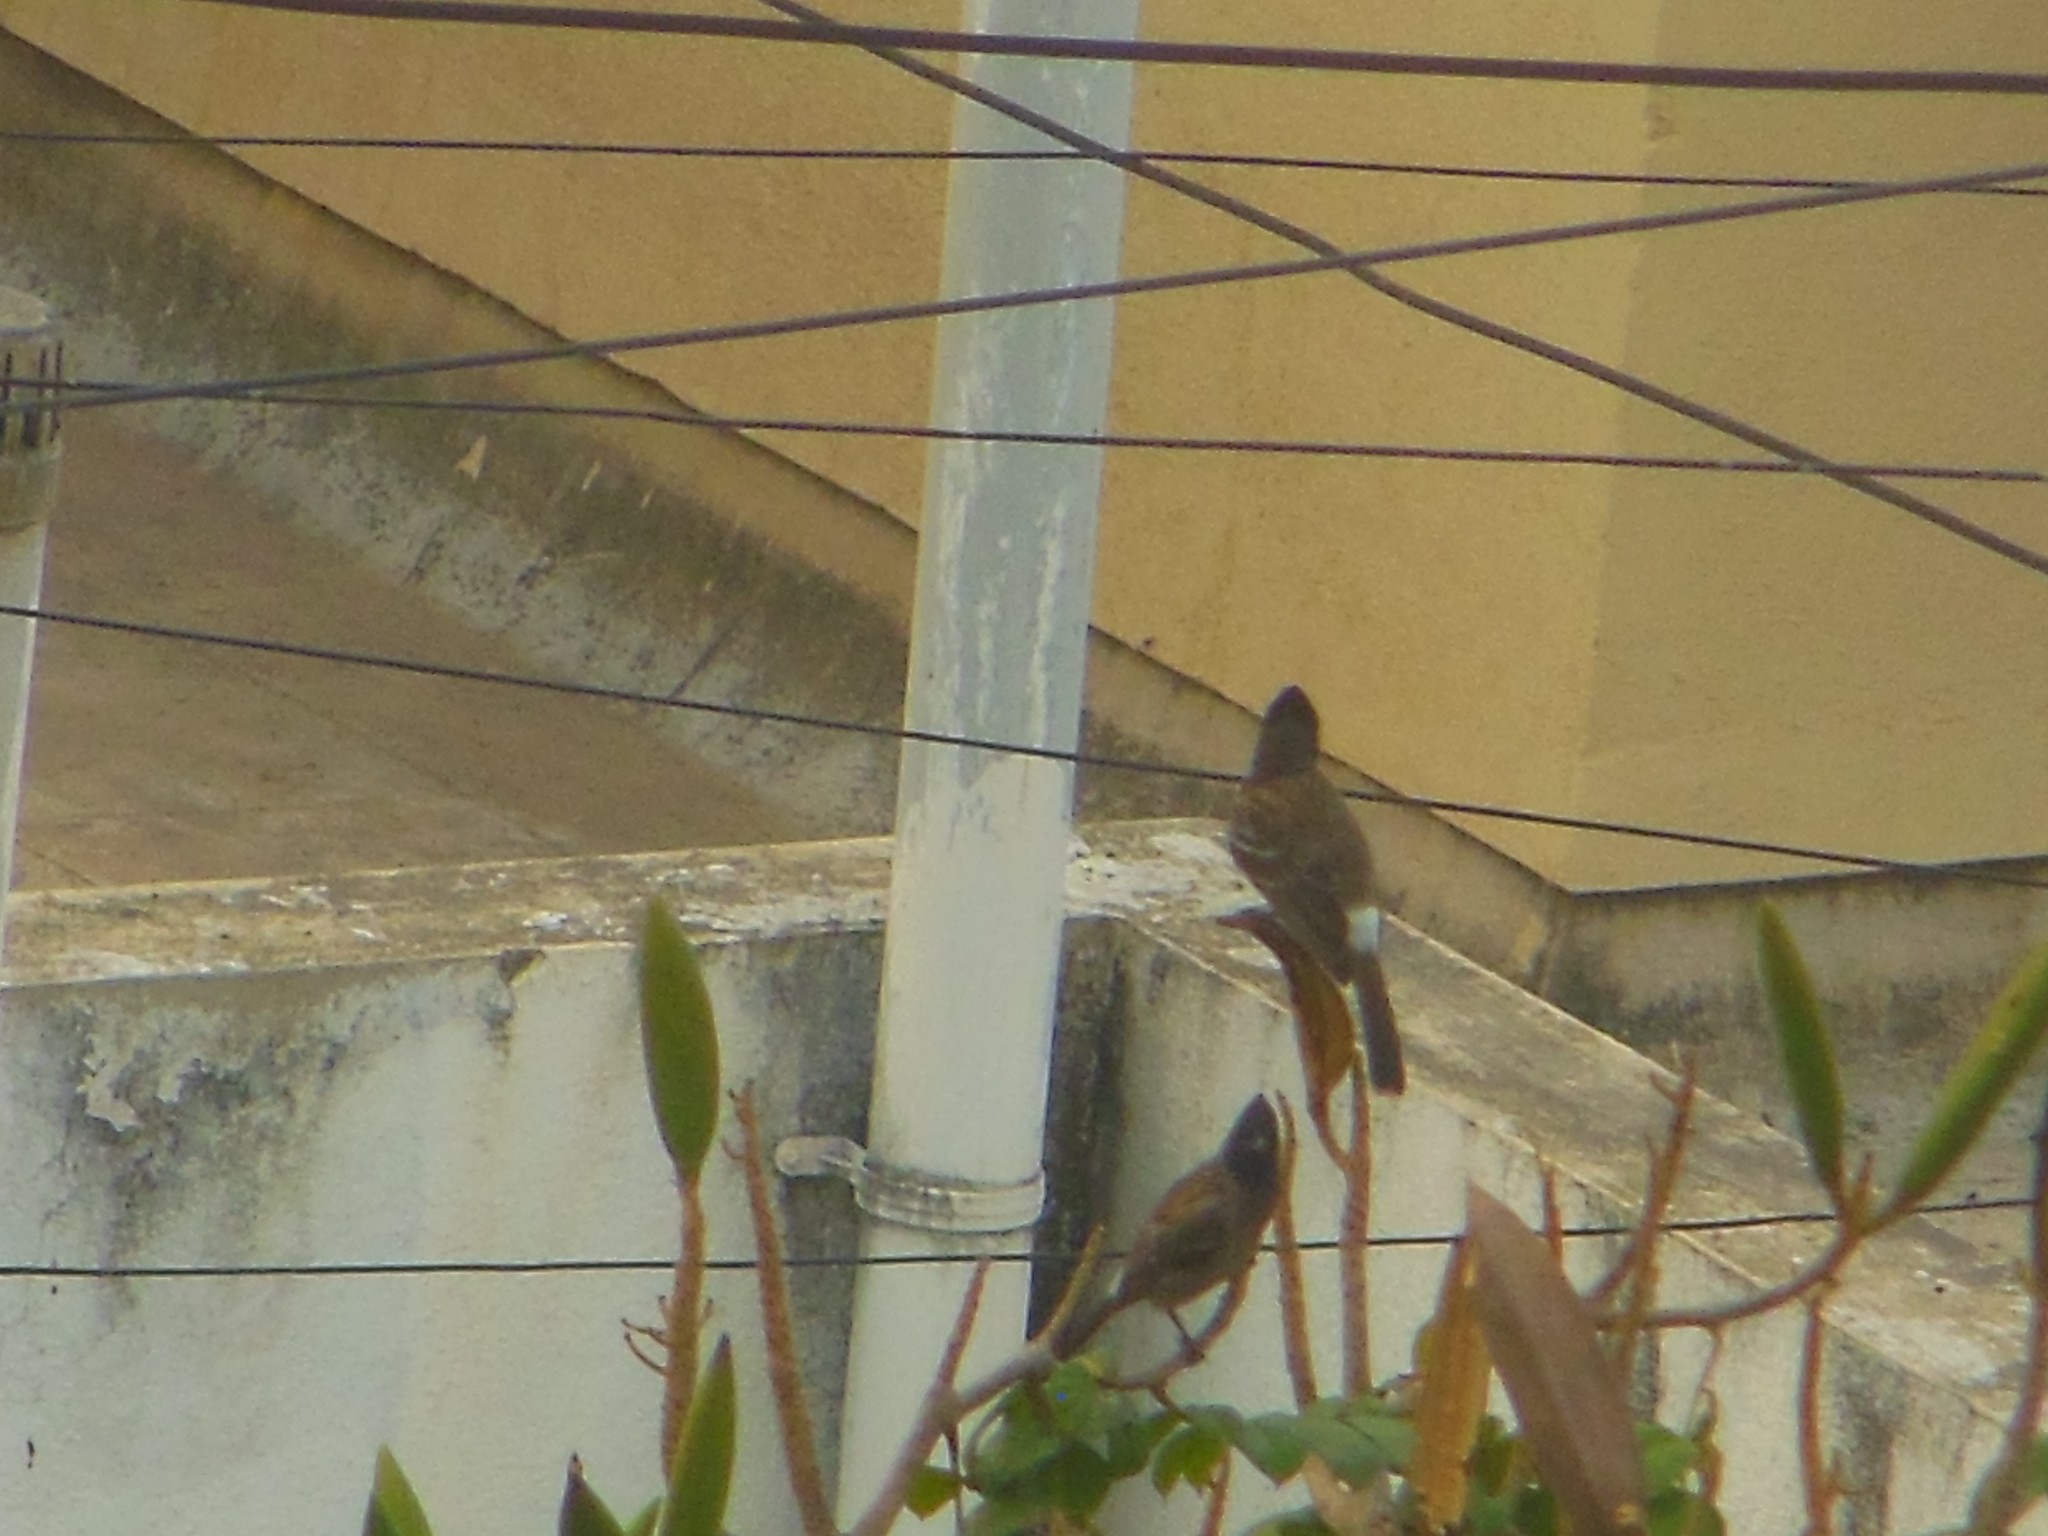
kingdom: Animalia
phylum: Chordata
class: Aves
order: Passeriformes
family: Pycnonotidae
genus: Pycnonotus
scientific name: Pycnonotus cafer
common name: Red-vented bulbul
